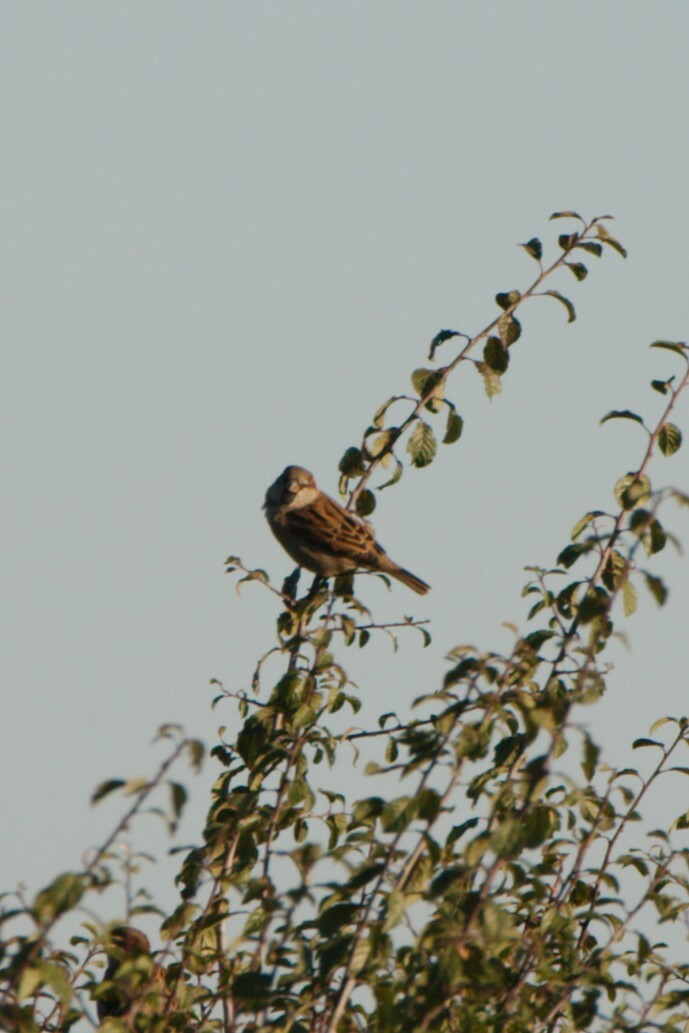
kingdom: Animalia
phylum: Chordata
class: Aves
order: Passeriformes
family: Passeridae
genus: Passer
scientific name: Passer domesticus
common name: House sparrow
